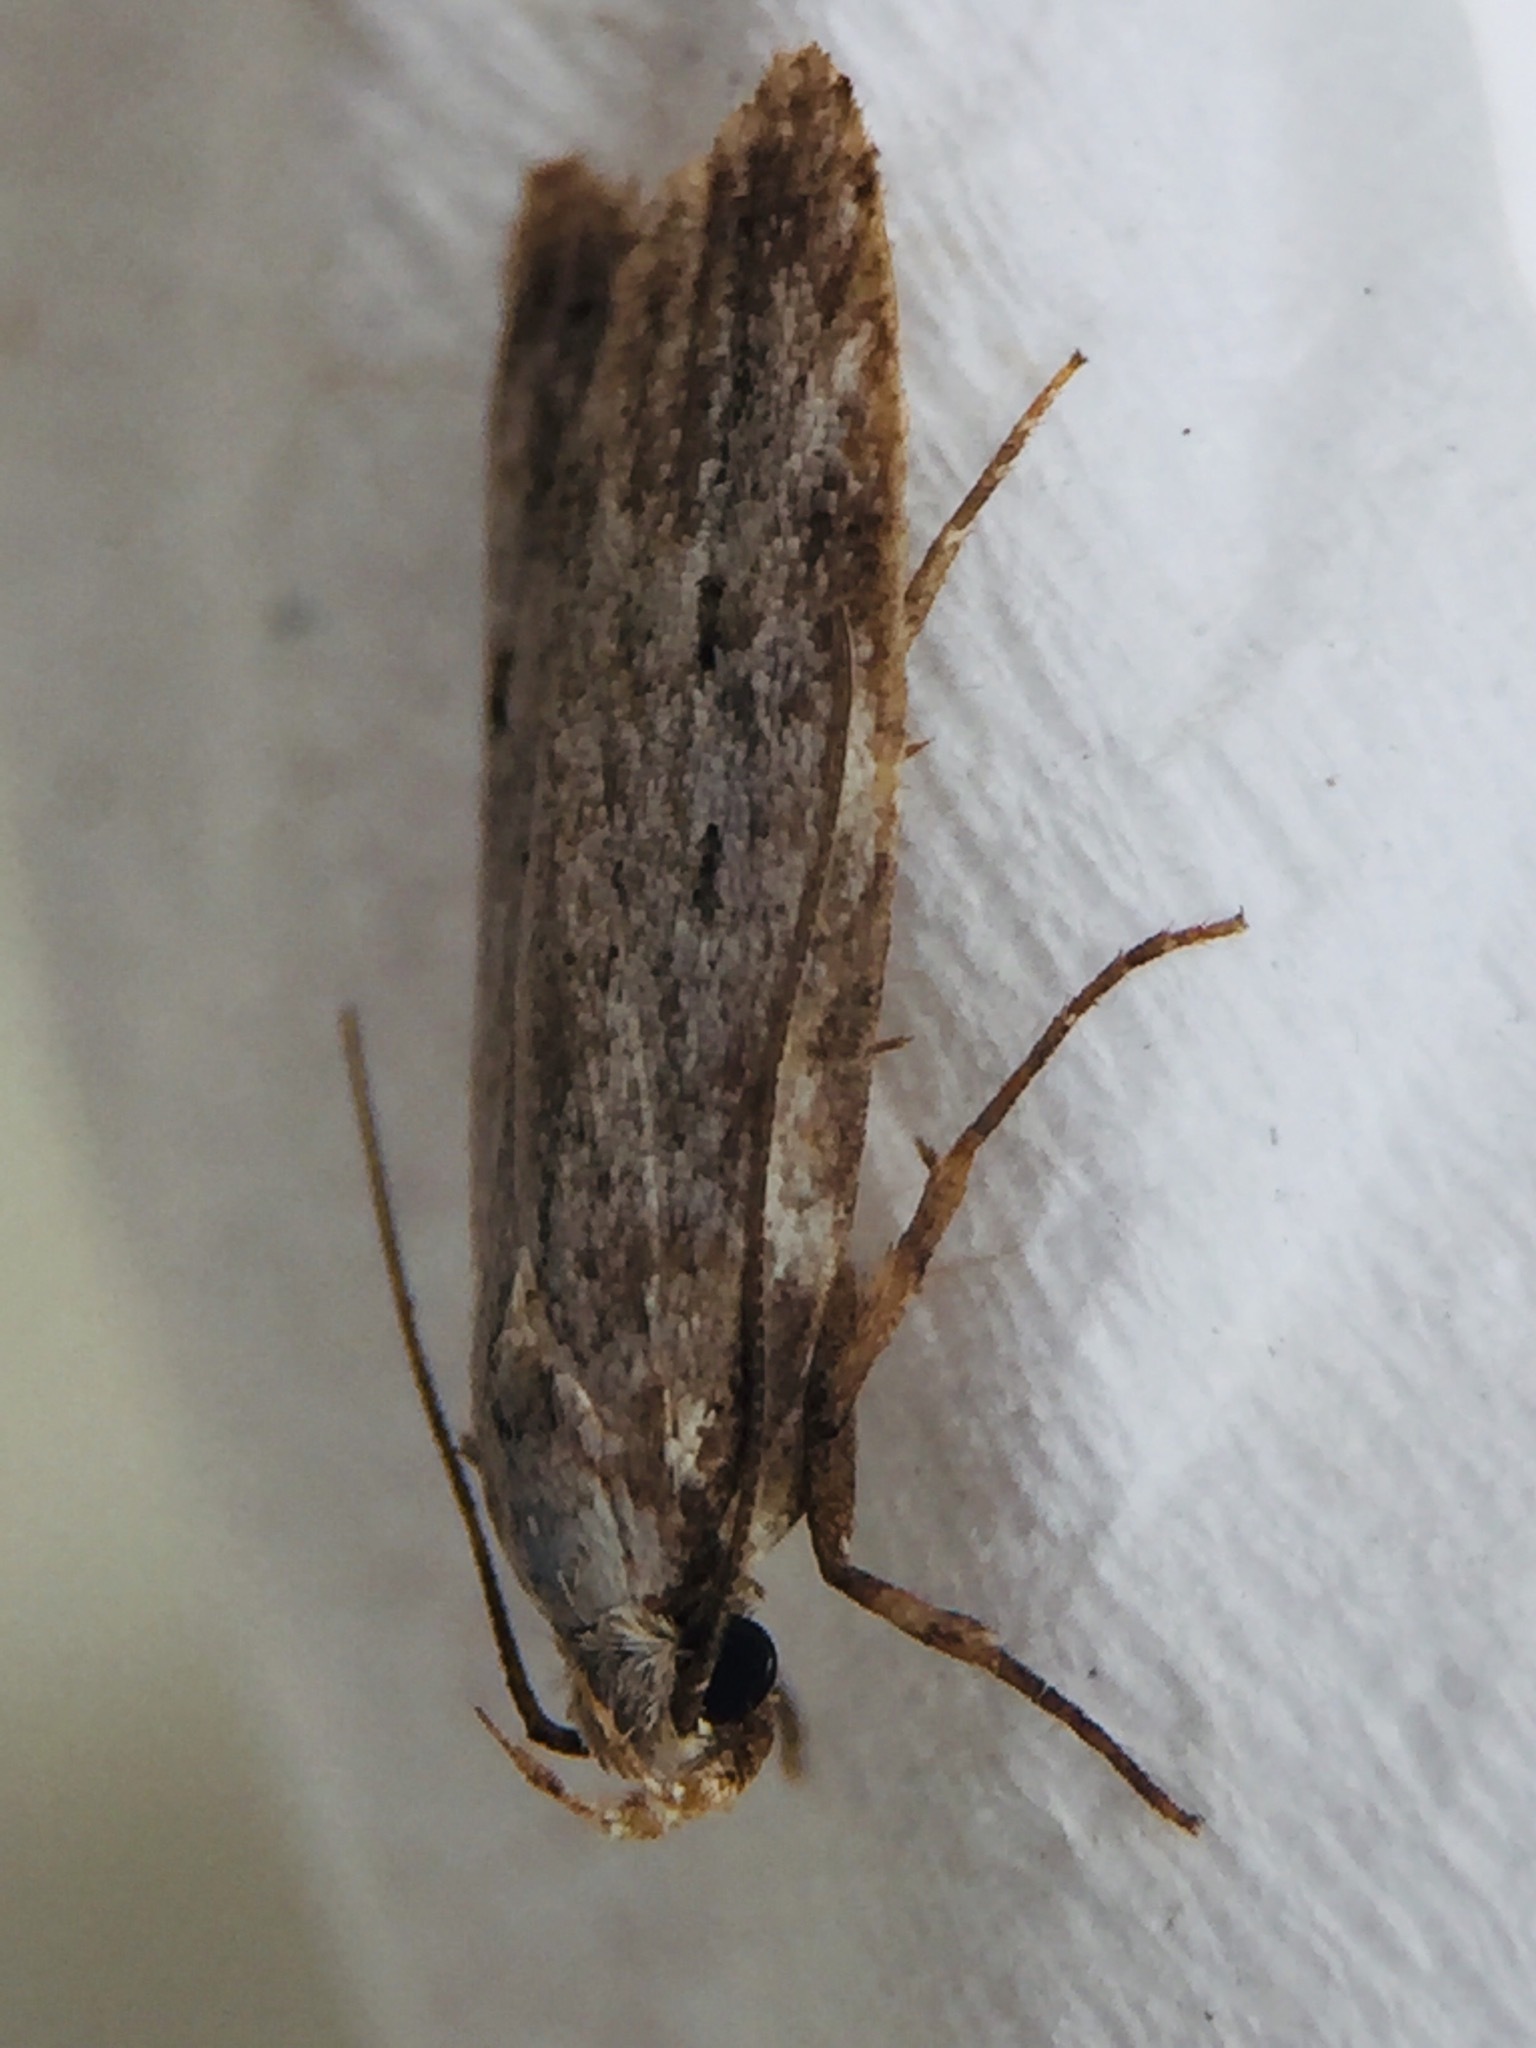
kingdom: Animalia
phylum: Arthropoda
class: Insecta
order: Lepidoptera
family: Oecophoridae
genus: Izatha
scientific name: Izatha balanophora
